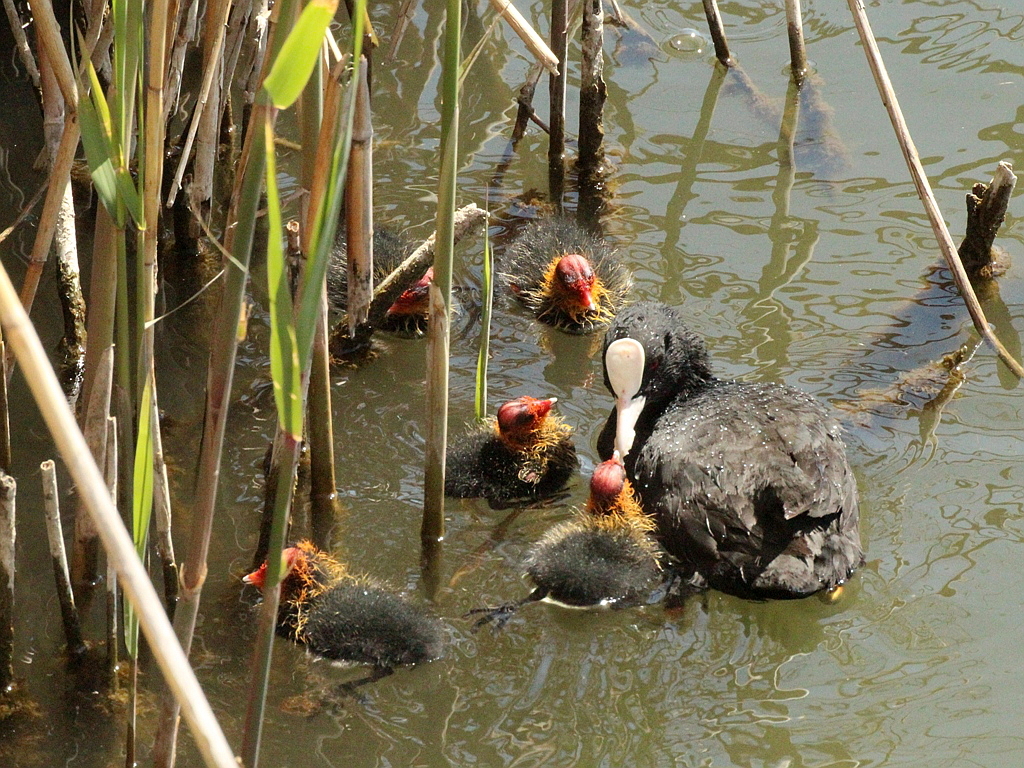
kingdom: Animalia
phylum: Chordata
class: Aves
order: Gruiformes
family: Rallidae
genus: Fulica
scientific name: Fulica atra
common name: Eurasian coot
